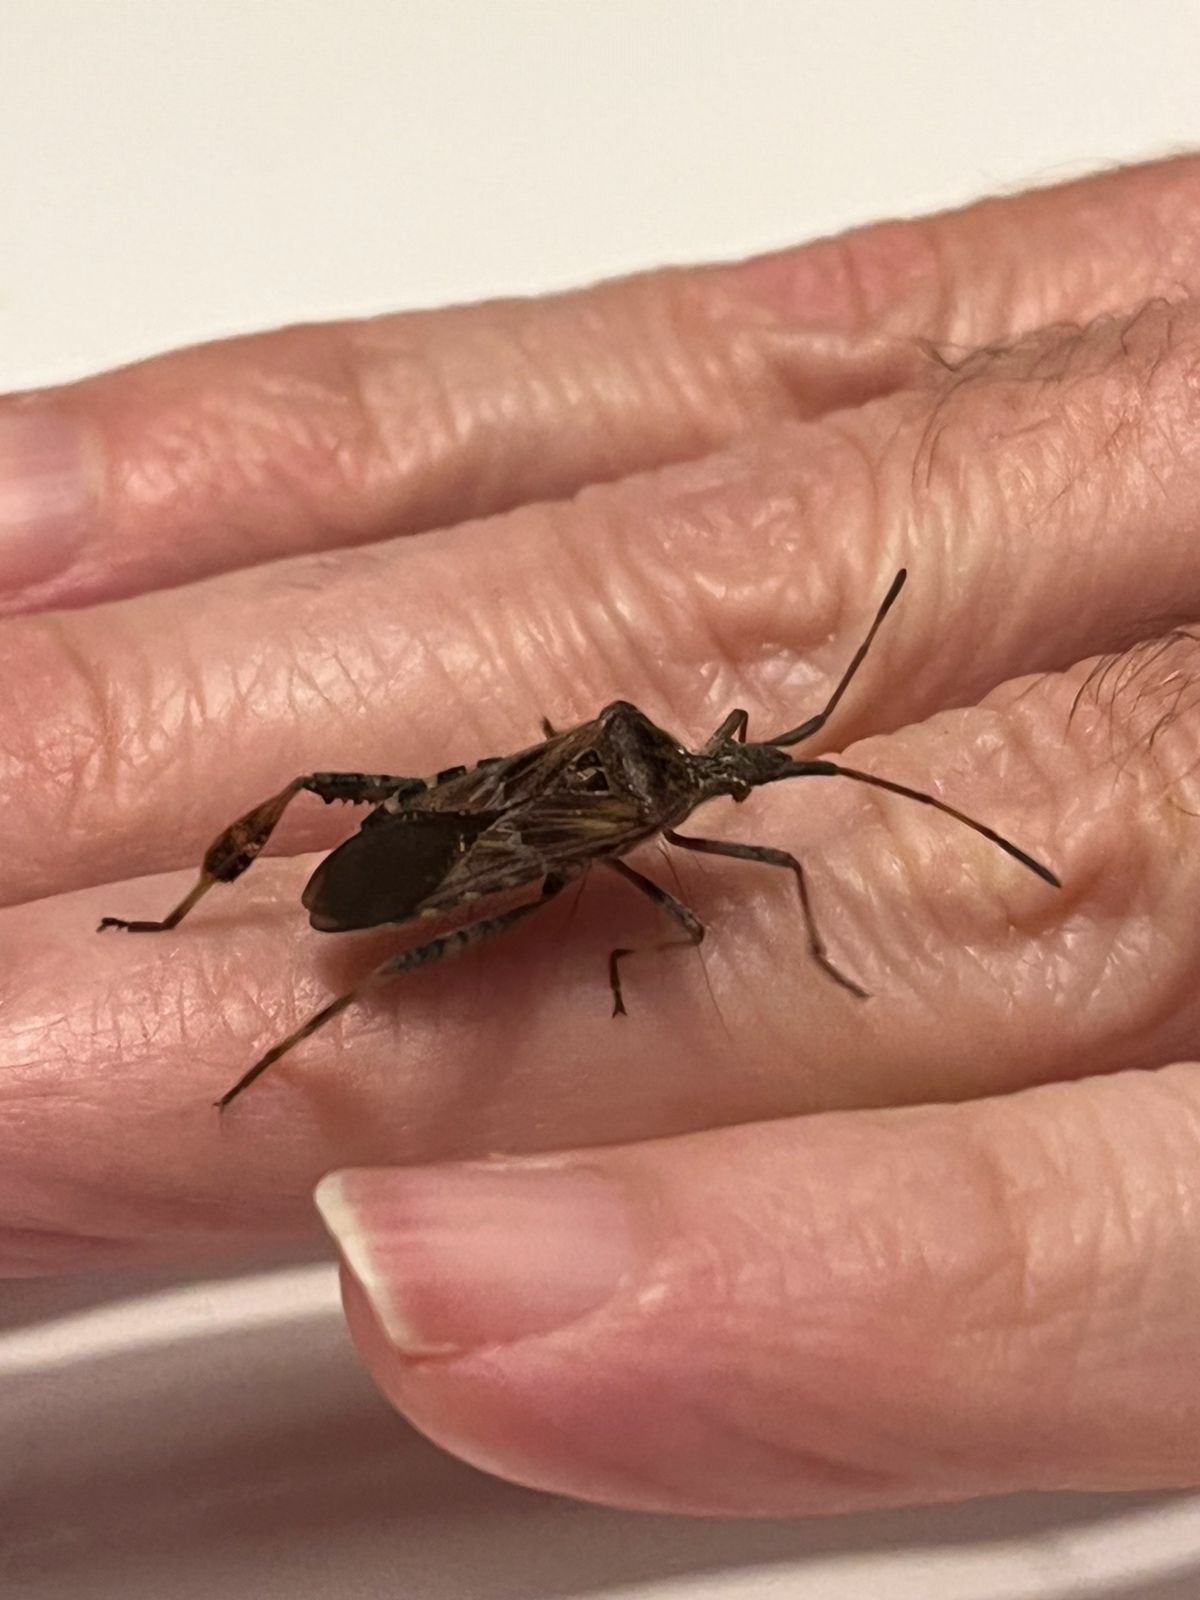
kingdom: Animalia
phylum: Arthropoda
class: Insecta
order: Hemiptera
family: Coreidae
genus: Leptoglossus
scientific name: Leptoglossus occidentalis
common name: Western conifer-seed bug
